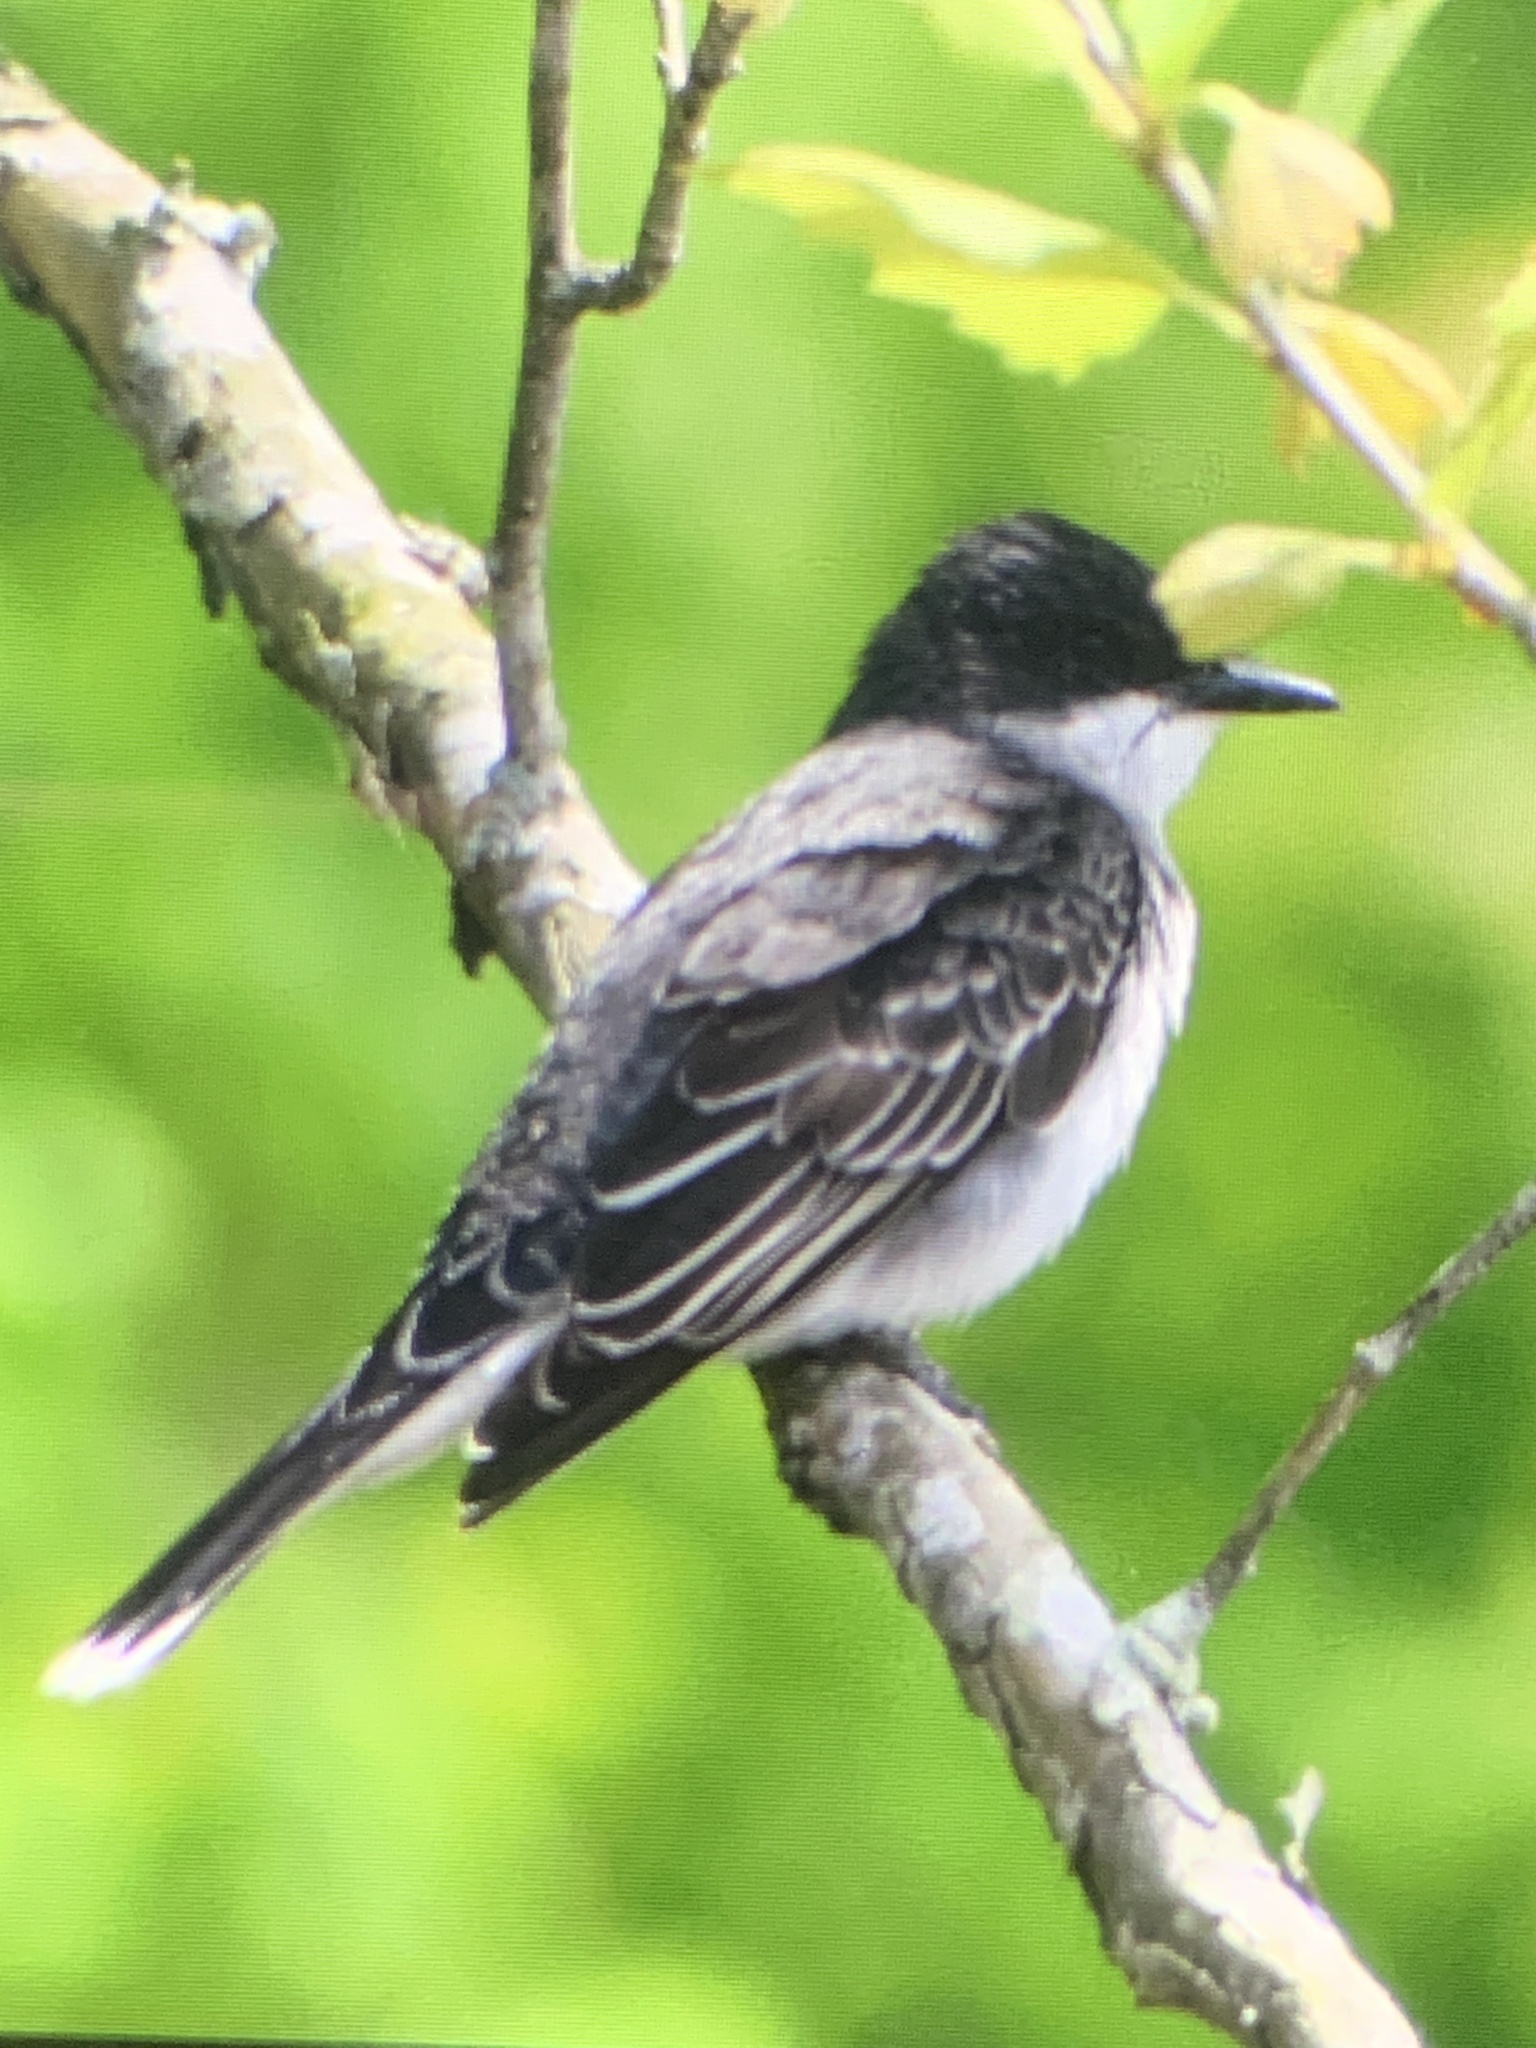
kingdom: Animalia
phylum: Chordata
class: Aves
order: Passeriformes
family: Tyrannidae
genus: Tyrannus
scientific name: Tyrannus tyrannus
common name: Eastern kingbird
